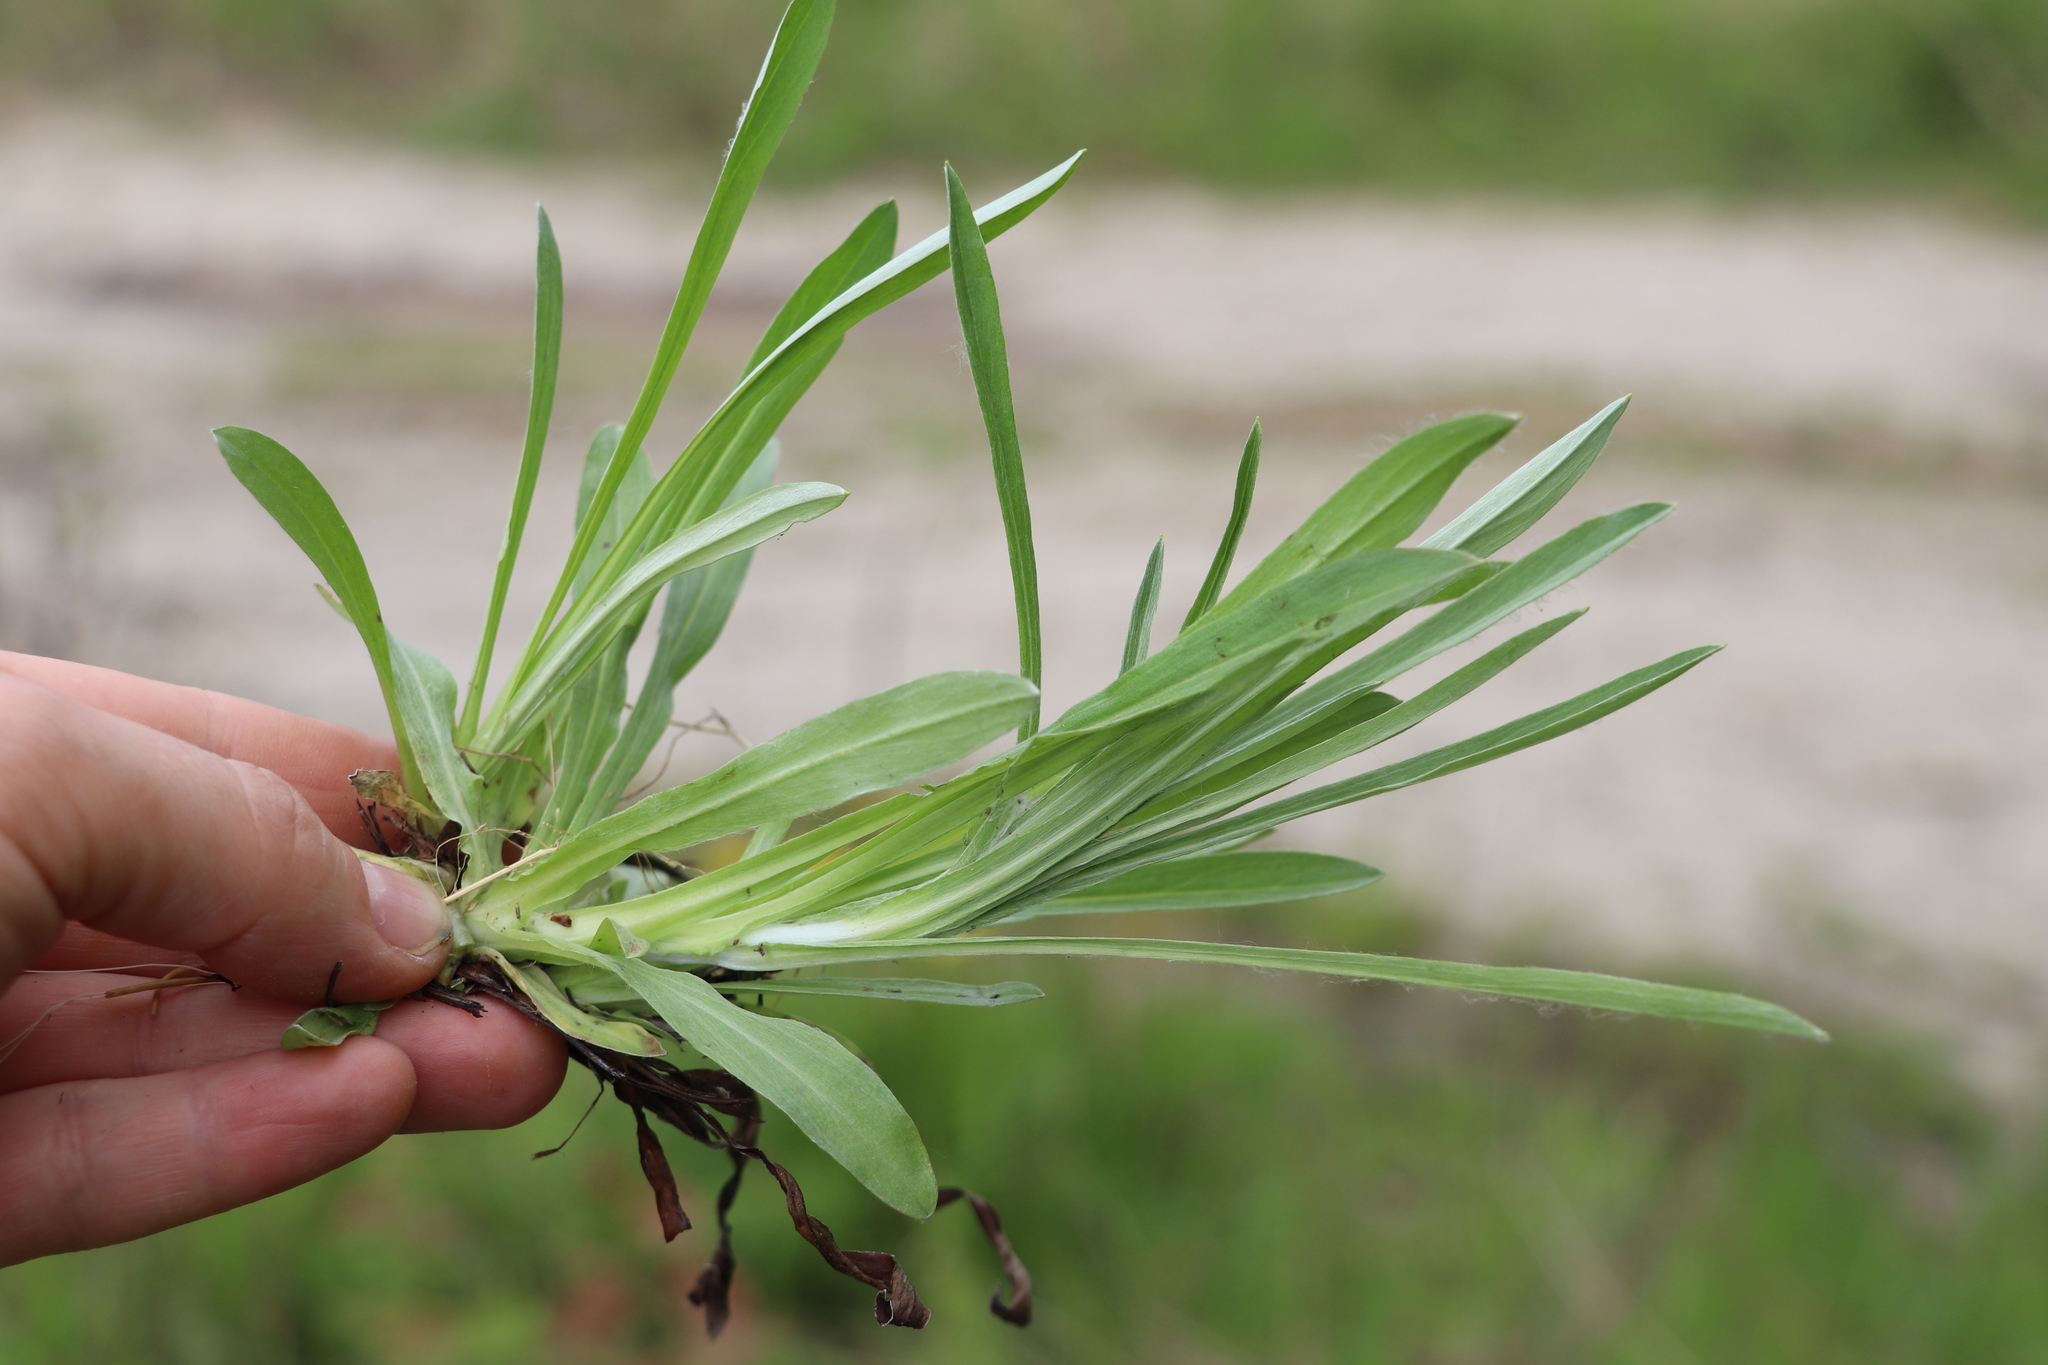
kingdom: Plantae
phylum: Tracheophyta
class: Magnoliopsida
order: Asterales
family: Asteraceae
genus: Omalotheca
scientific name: Omalotheca sylvatica
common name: Heath cudweed
